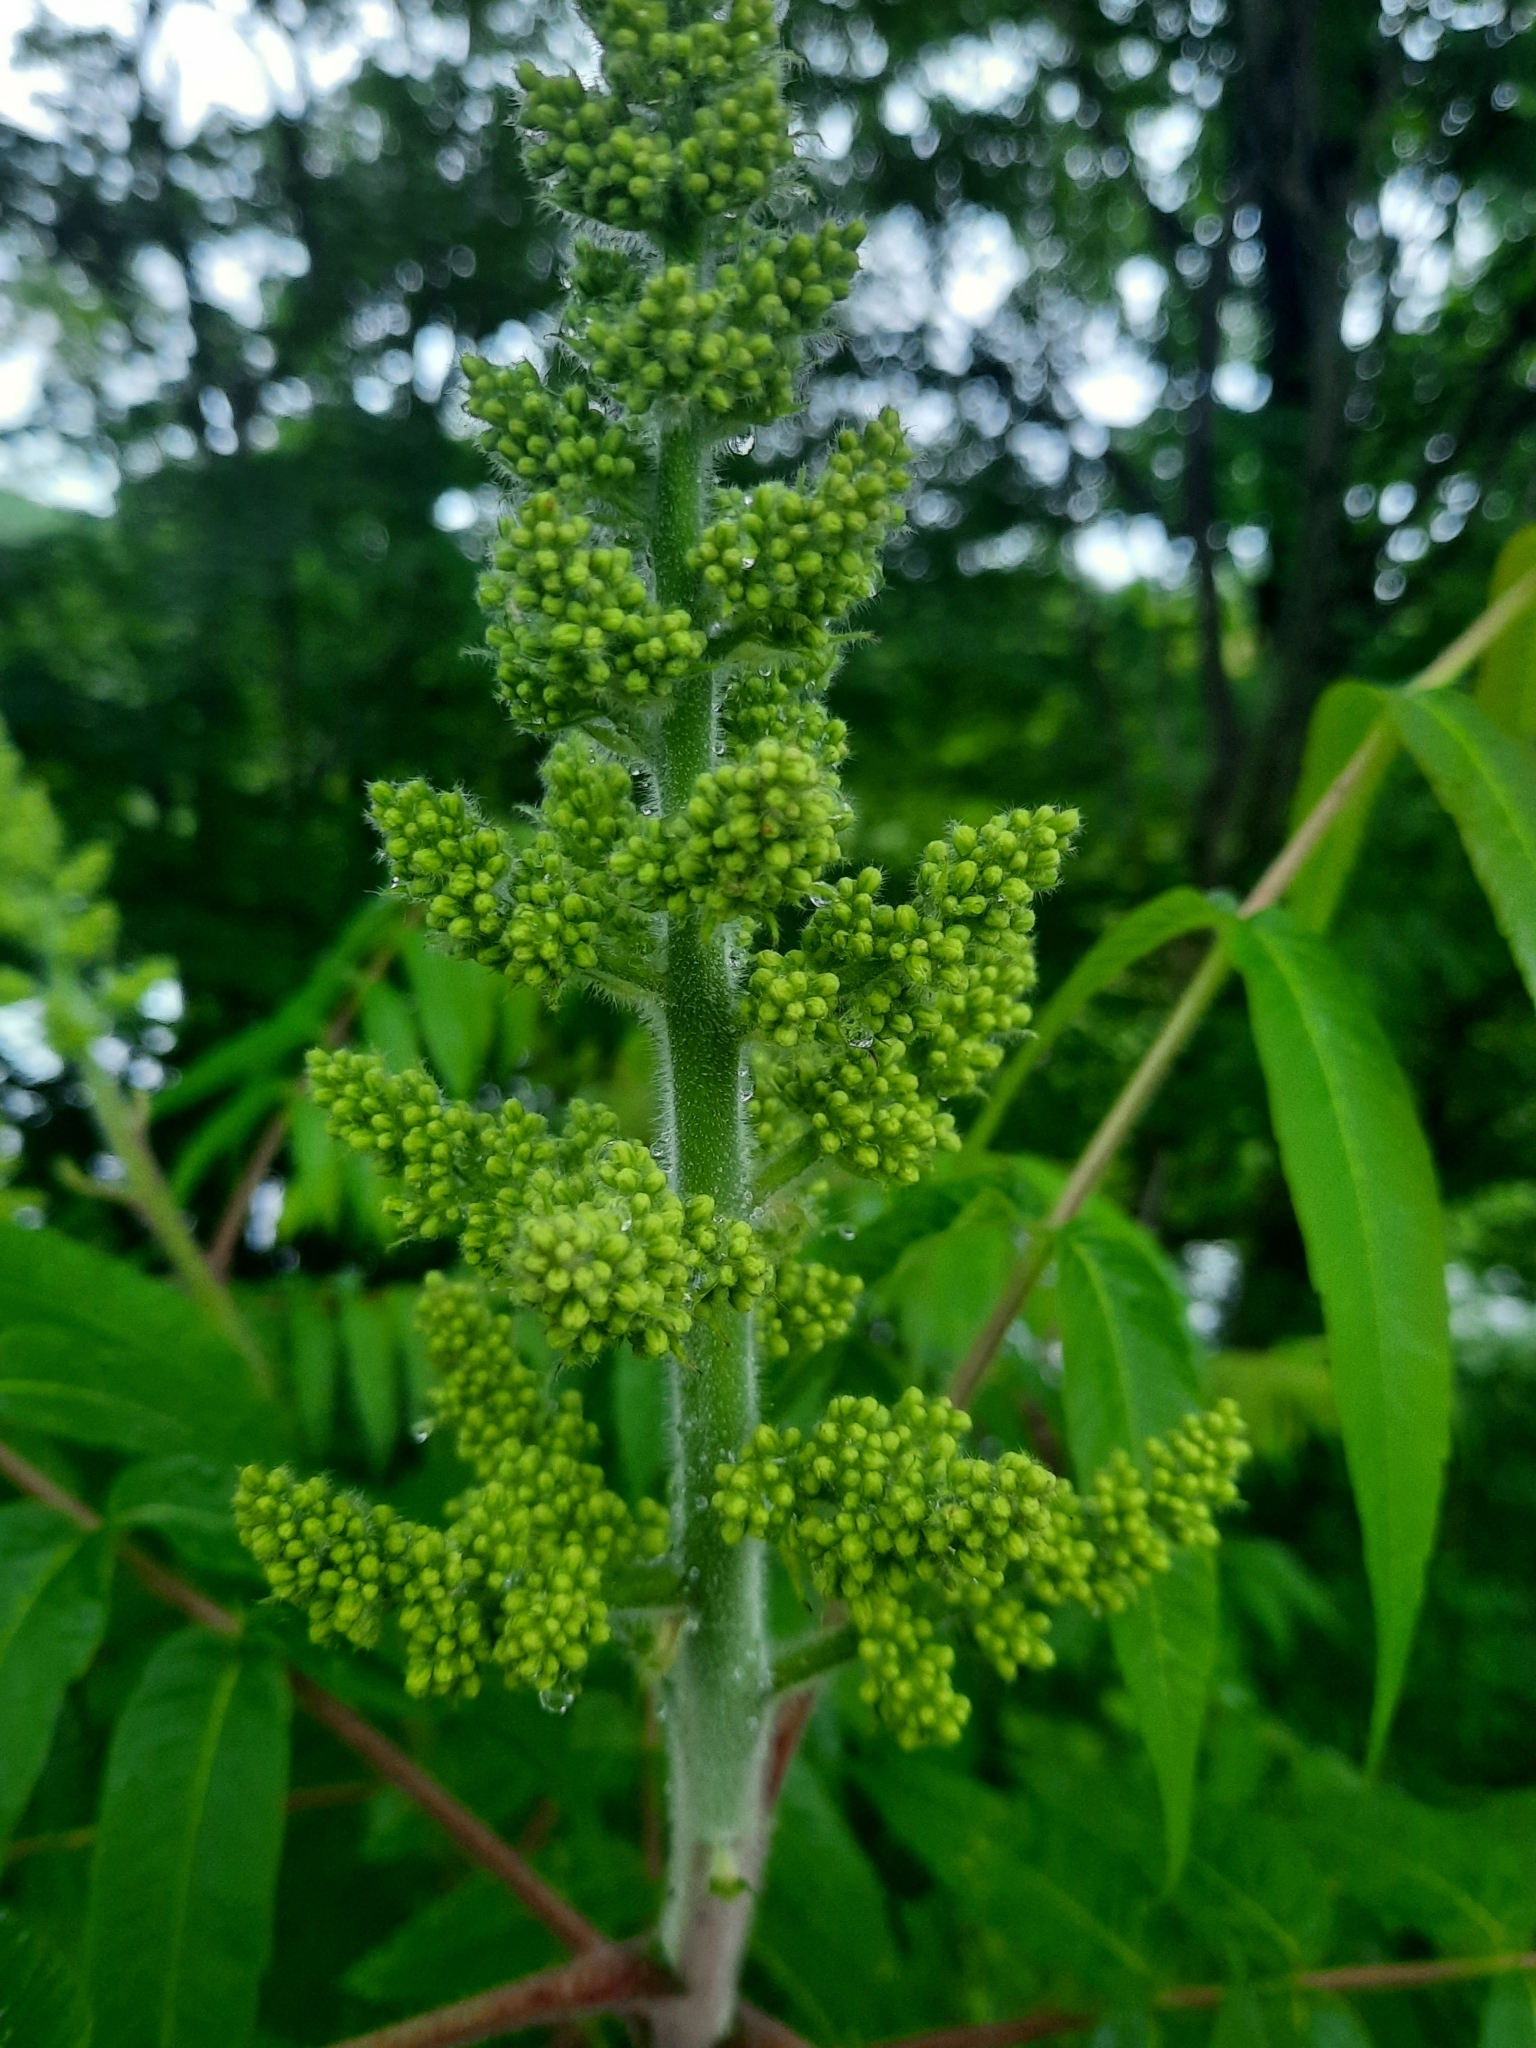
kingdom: Plantae
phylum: Tracheophyta
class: Magnoliopsida
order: Sapindales
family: Anacardiaceae
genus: Rhus
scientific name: Rhus typhina
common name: Staghorn sumac
